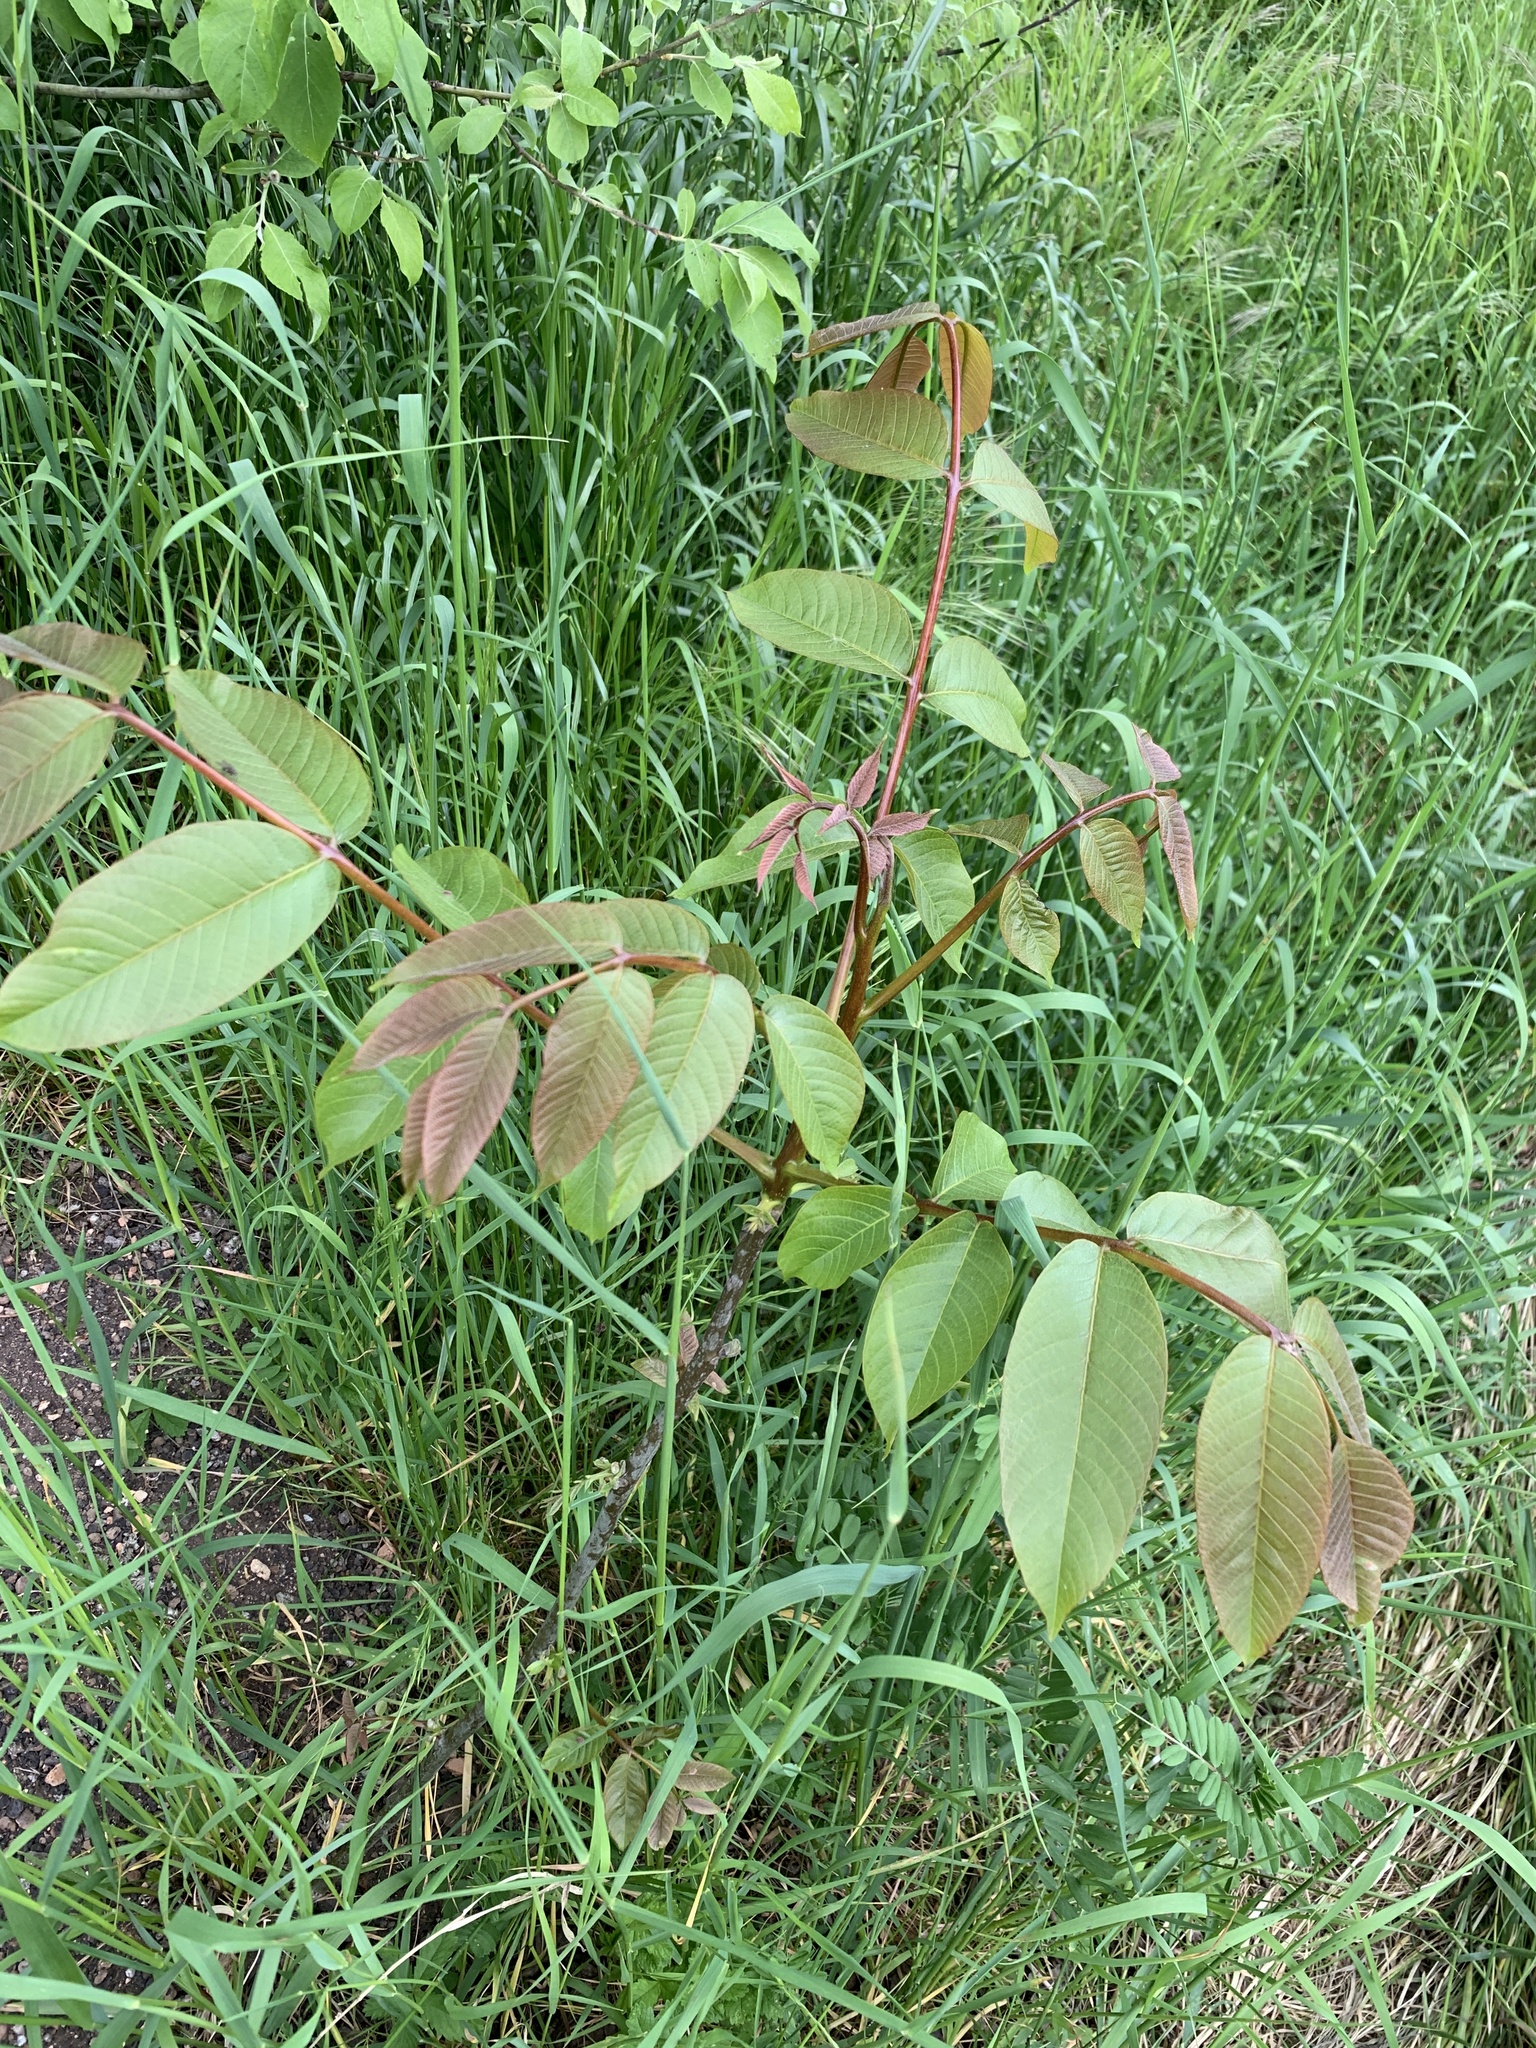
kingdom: Plantae
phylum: Tracheophyta
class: Magnoliopsida
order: Fagales
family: Juglandaceae
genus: Juglans
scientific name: Juglans regia
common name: Walnut
